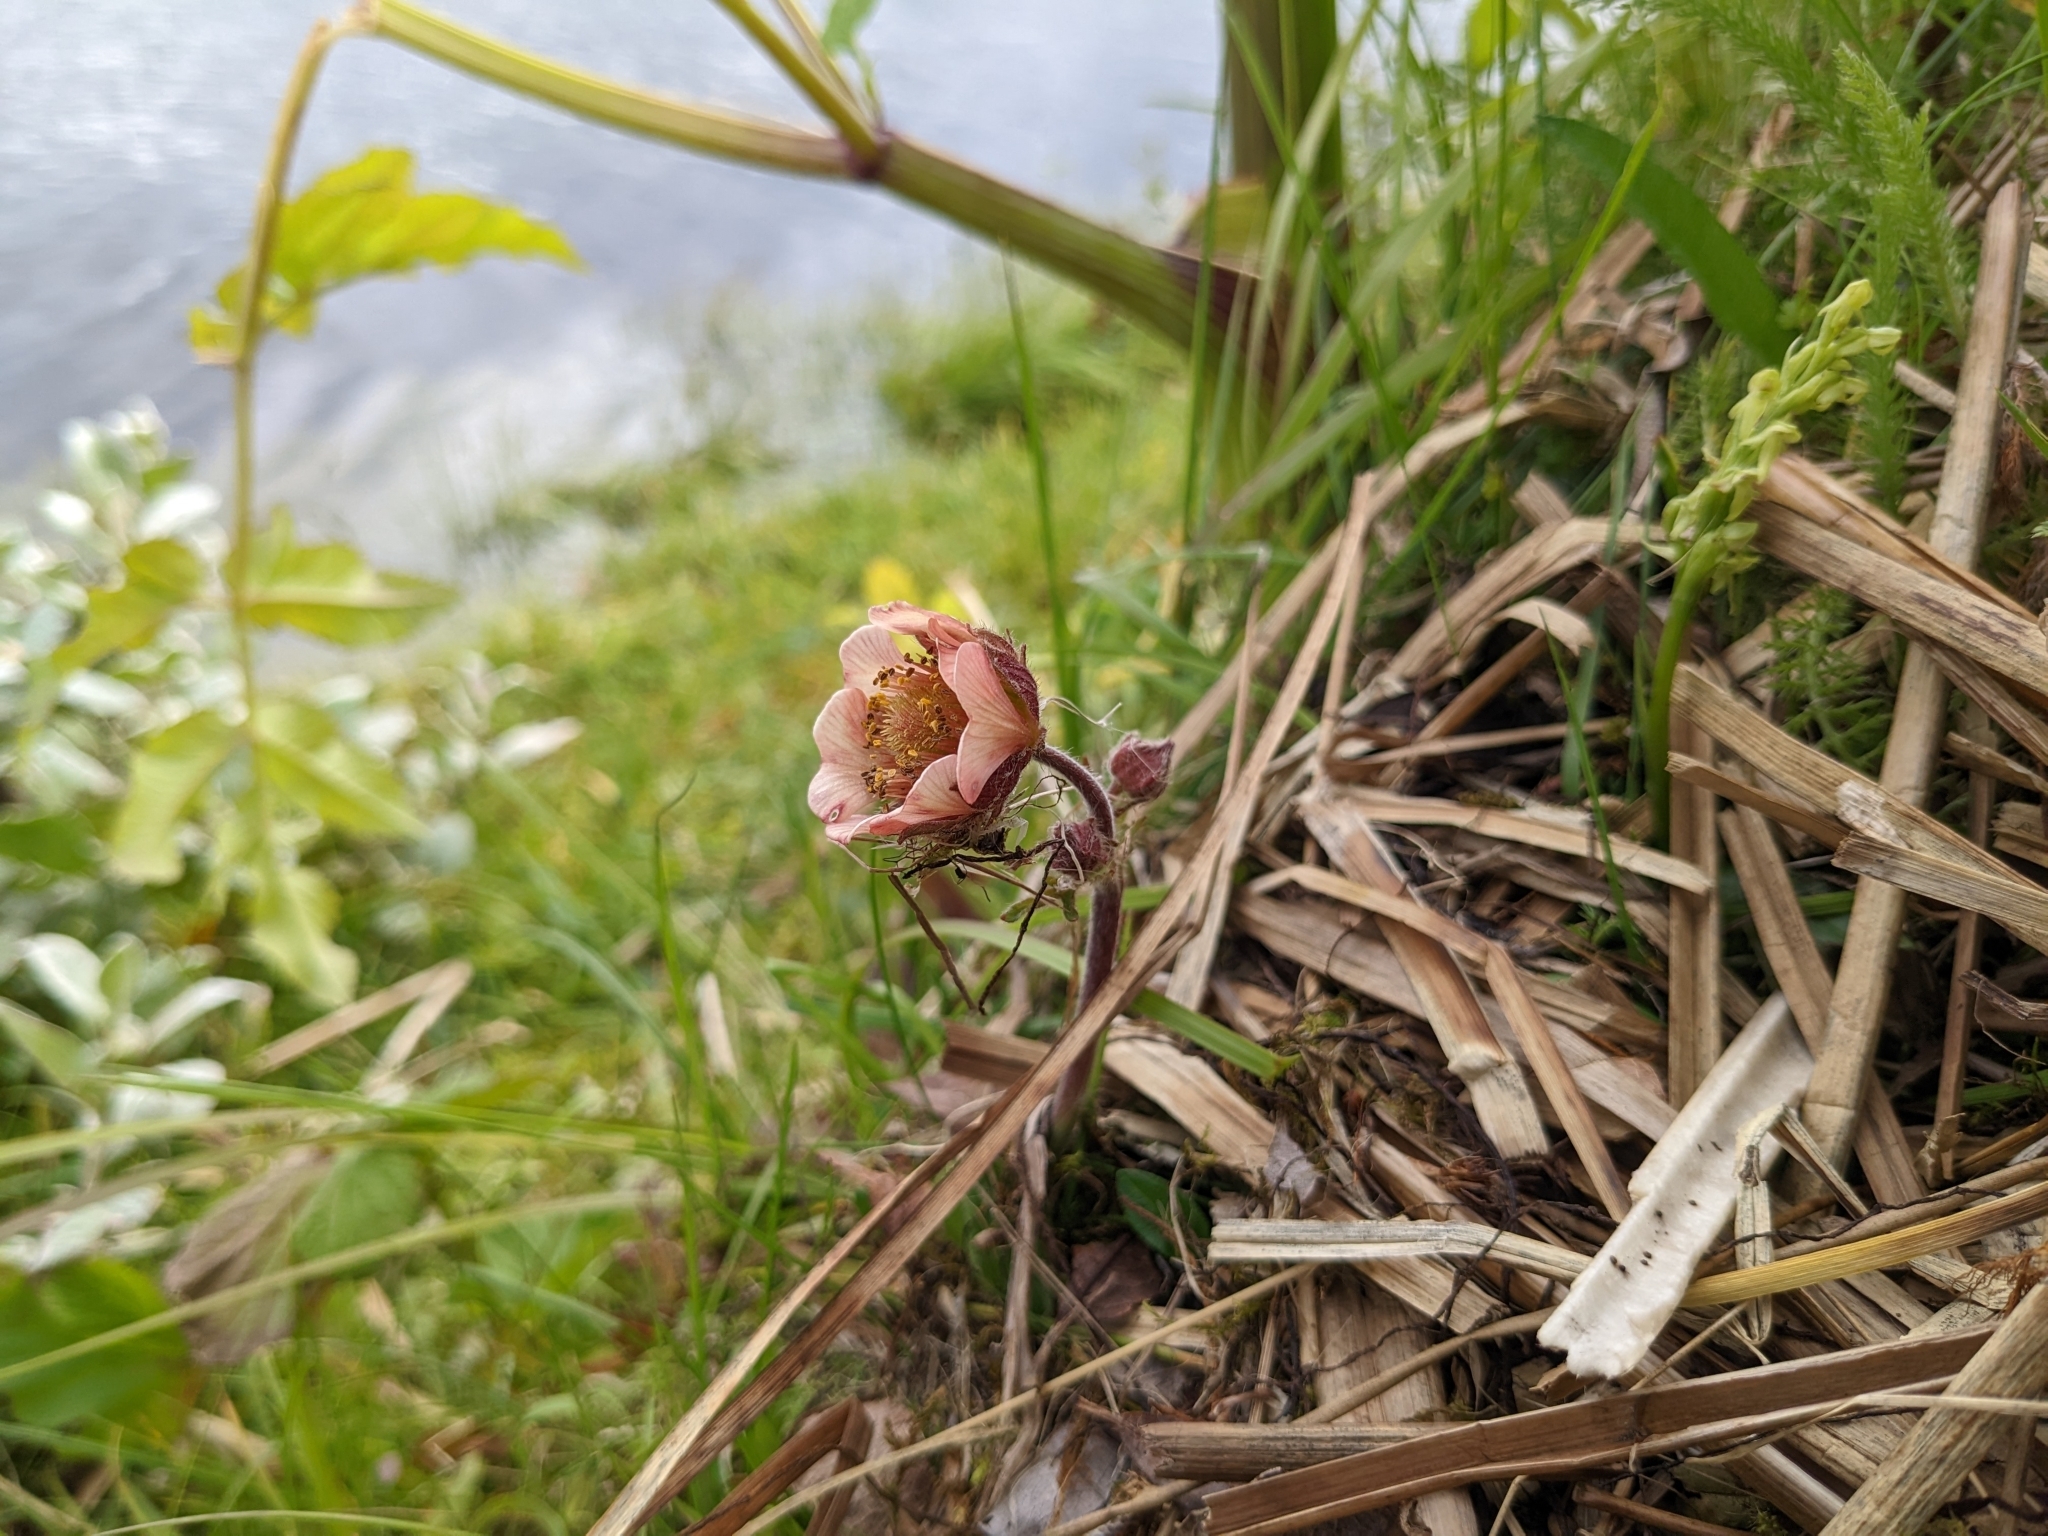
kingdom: Plantae
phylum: Tracheophyta
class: Magnoliopsida
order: Rosales
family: Rosaceae
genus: Geum
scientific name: Geum rivale
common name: Water avens
